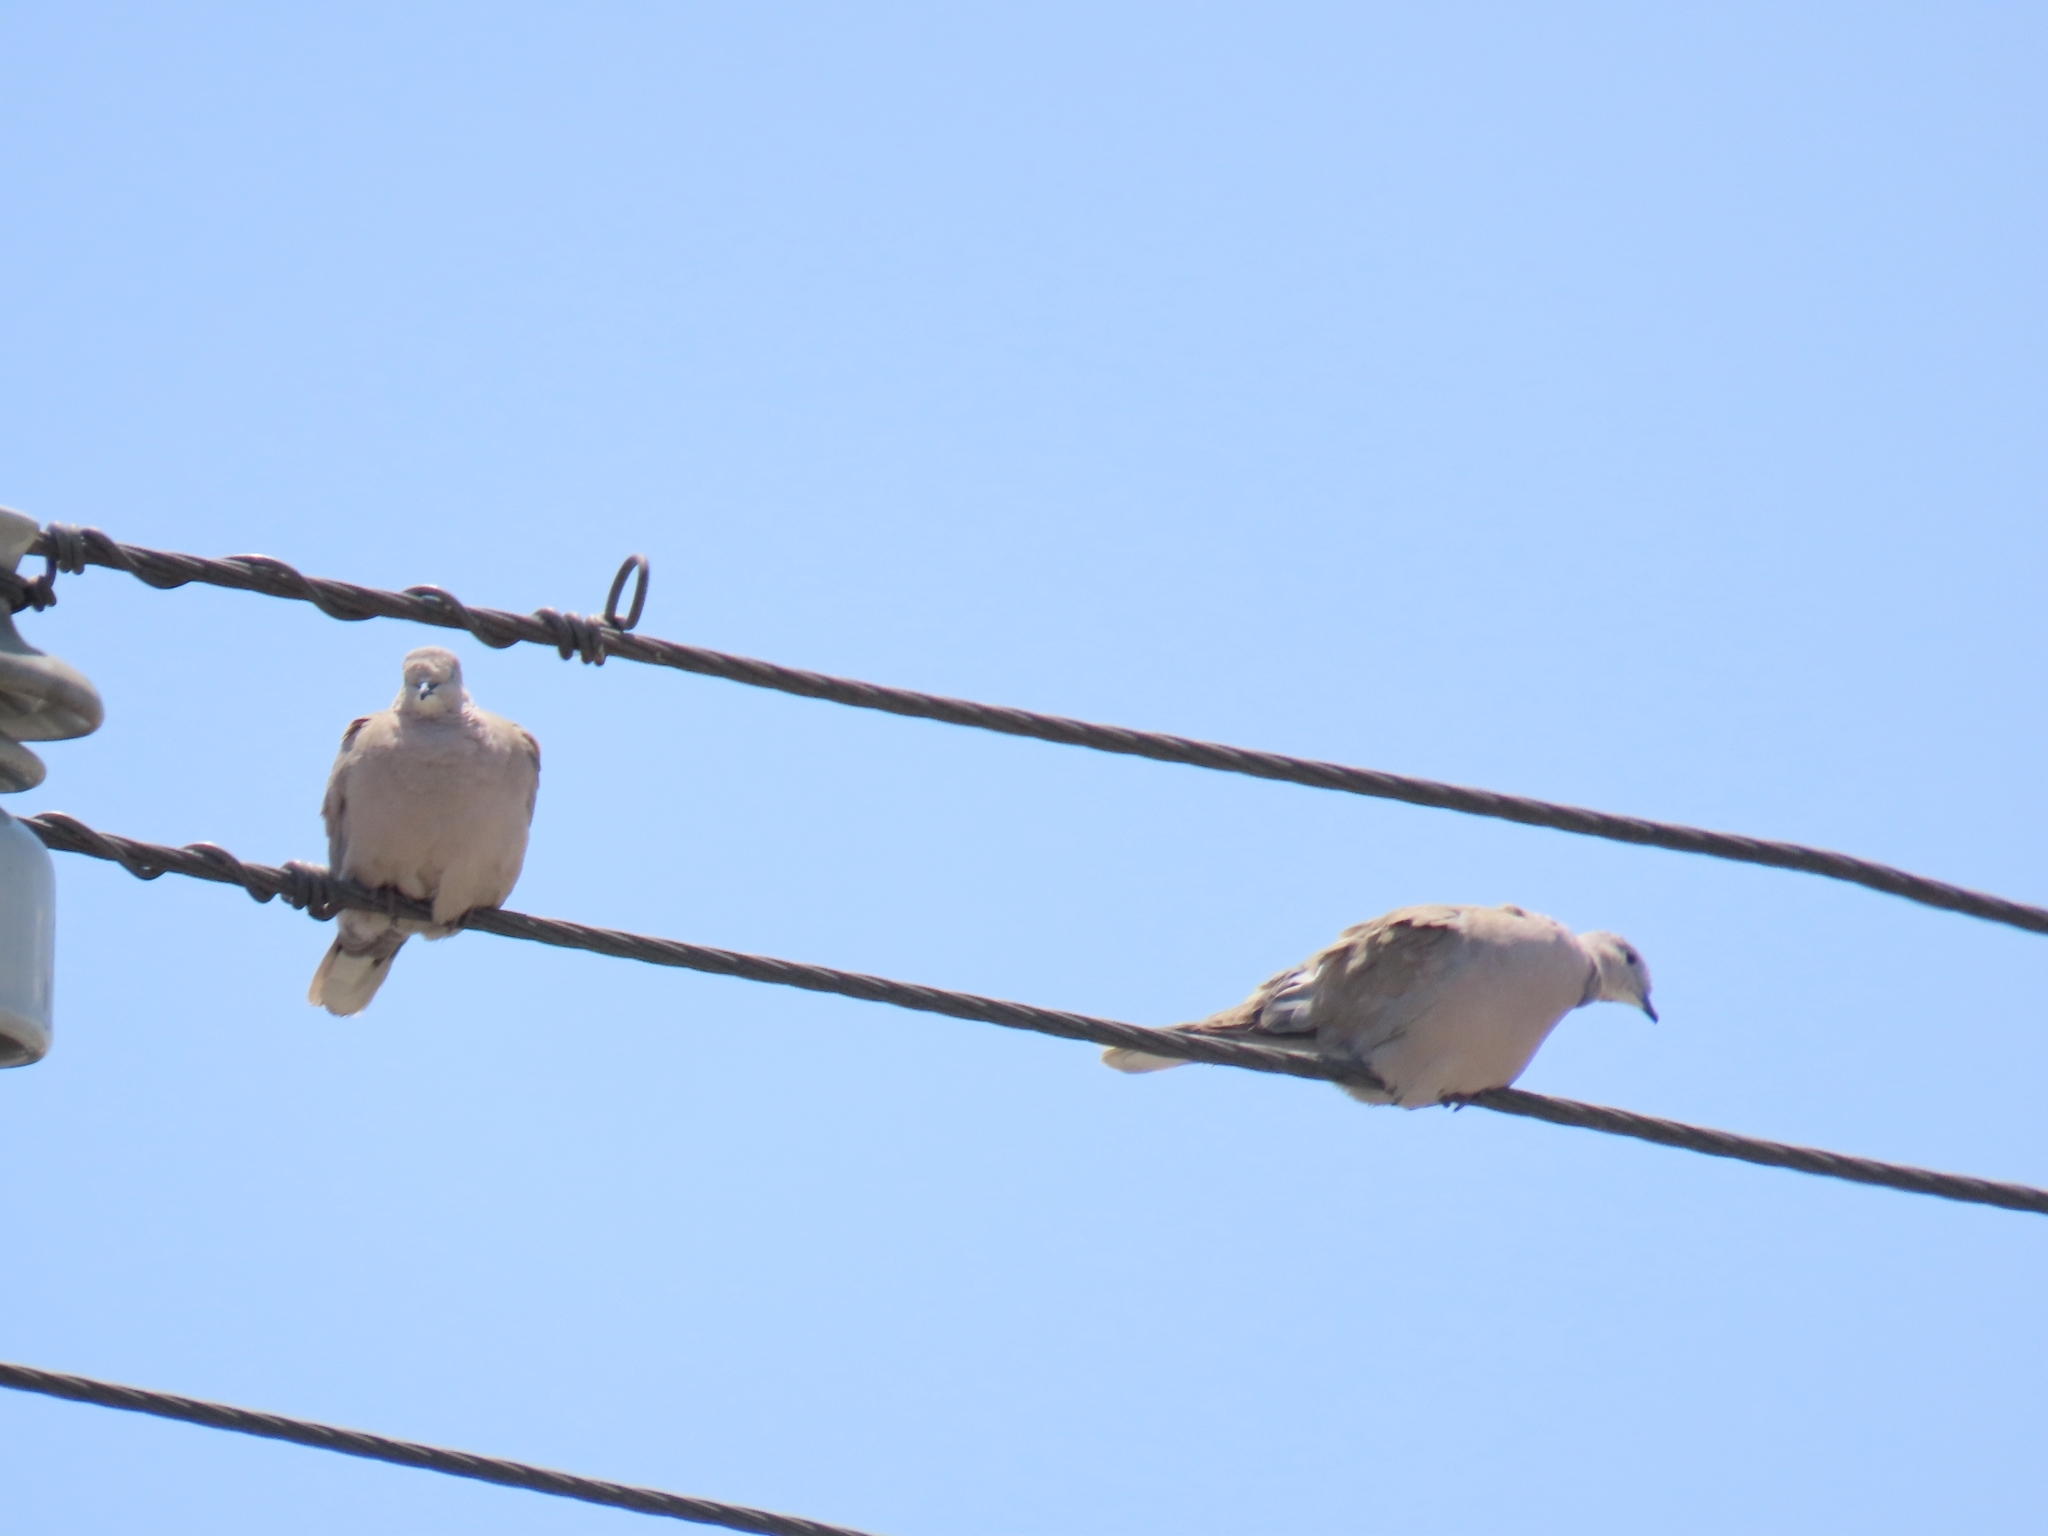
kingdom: Animalia
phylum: Chordata
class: Aves
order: Columbiformes
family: Columbidae
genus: Streptopelia
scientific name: Streptopelia decaocto
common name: Eurasian collared dove
